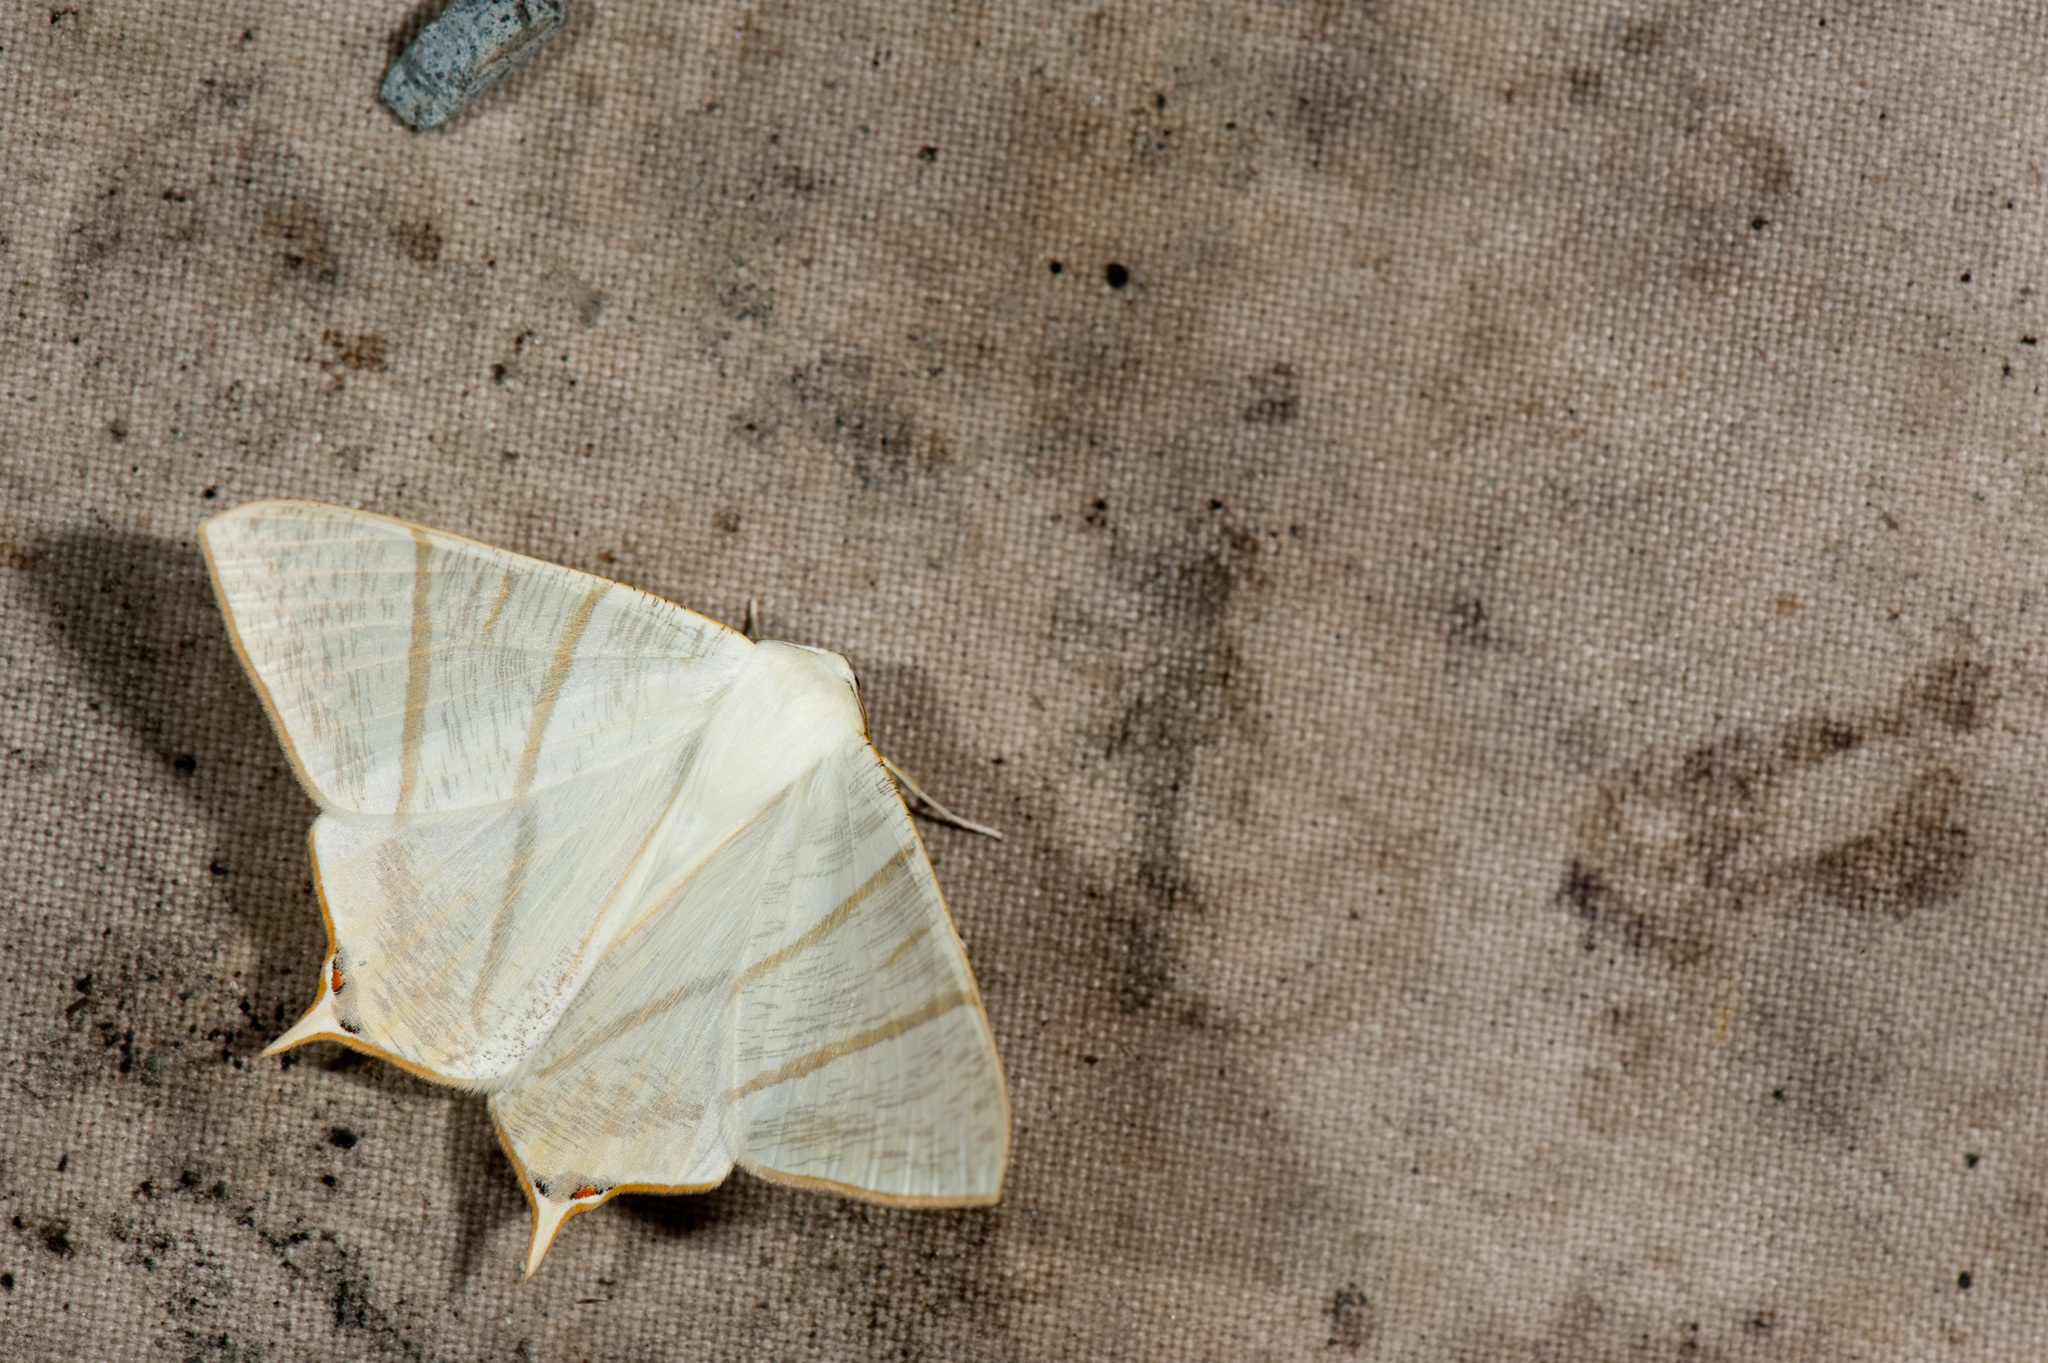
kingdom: Animalia
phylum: Arthropoda
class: Insecta
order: Lepidoptera
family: Geometridae
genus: Ourapteryx
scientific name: Ourapteryx pallidula
